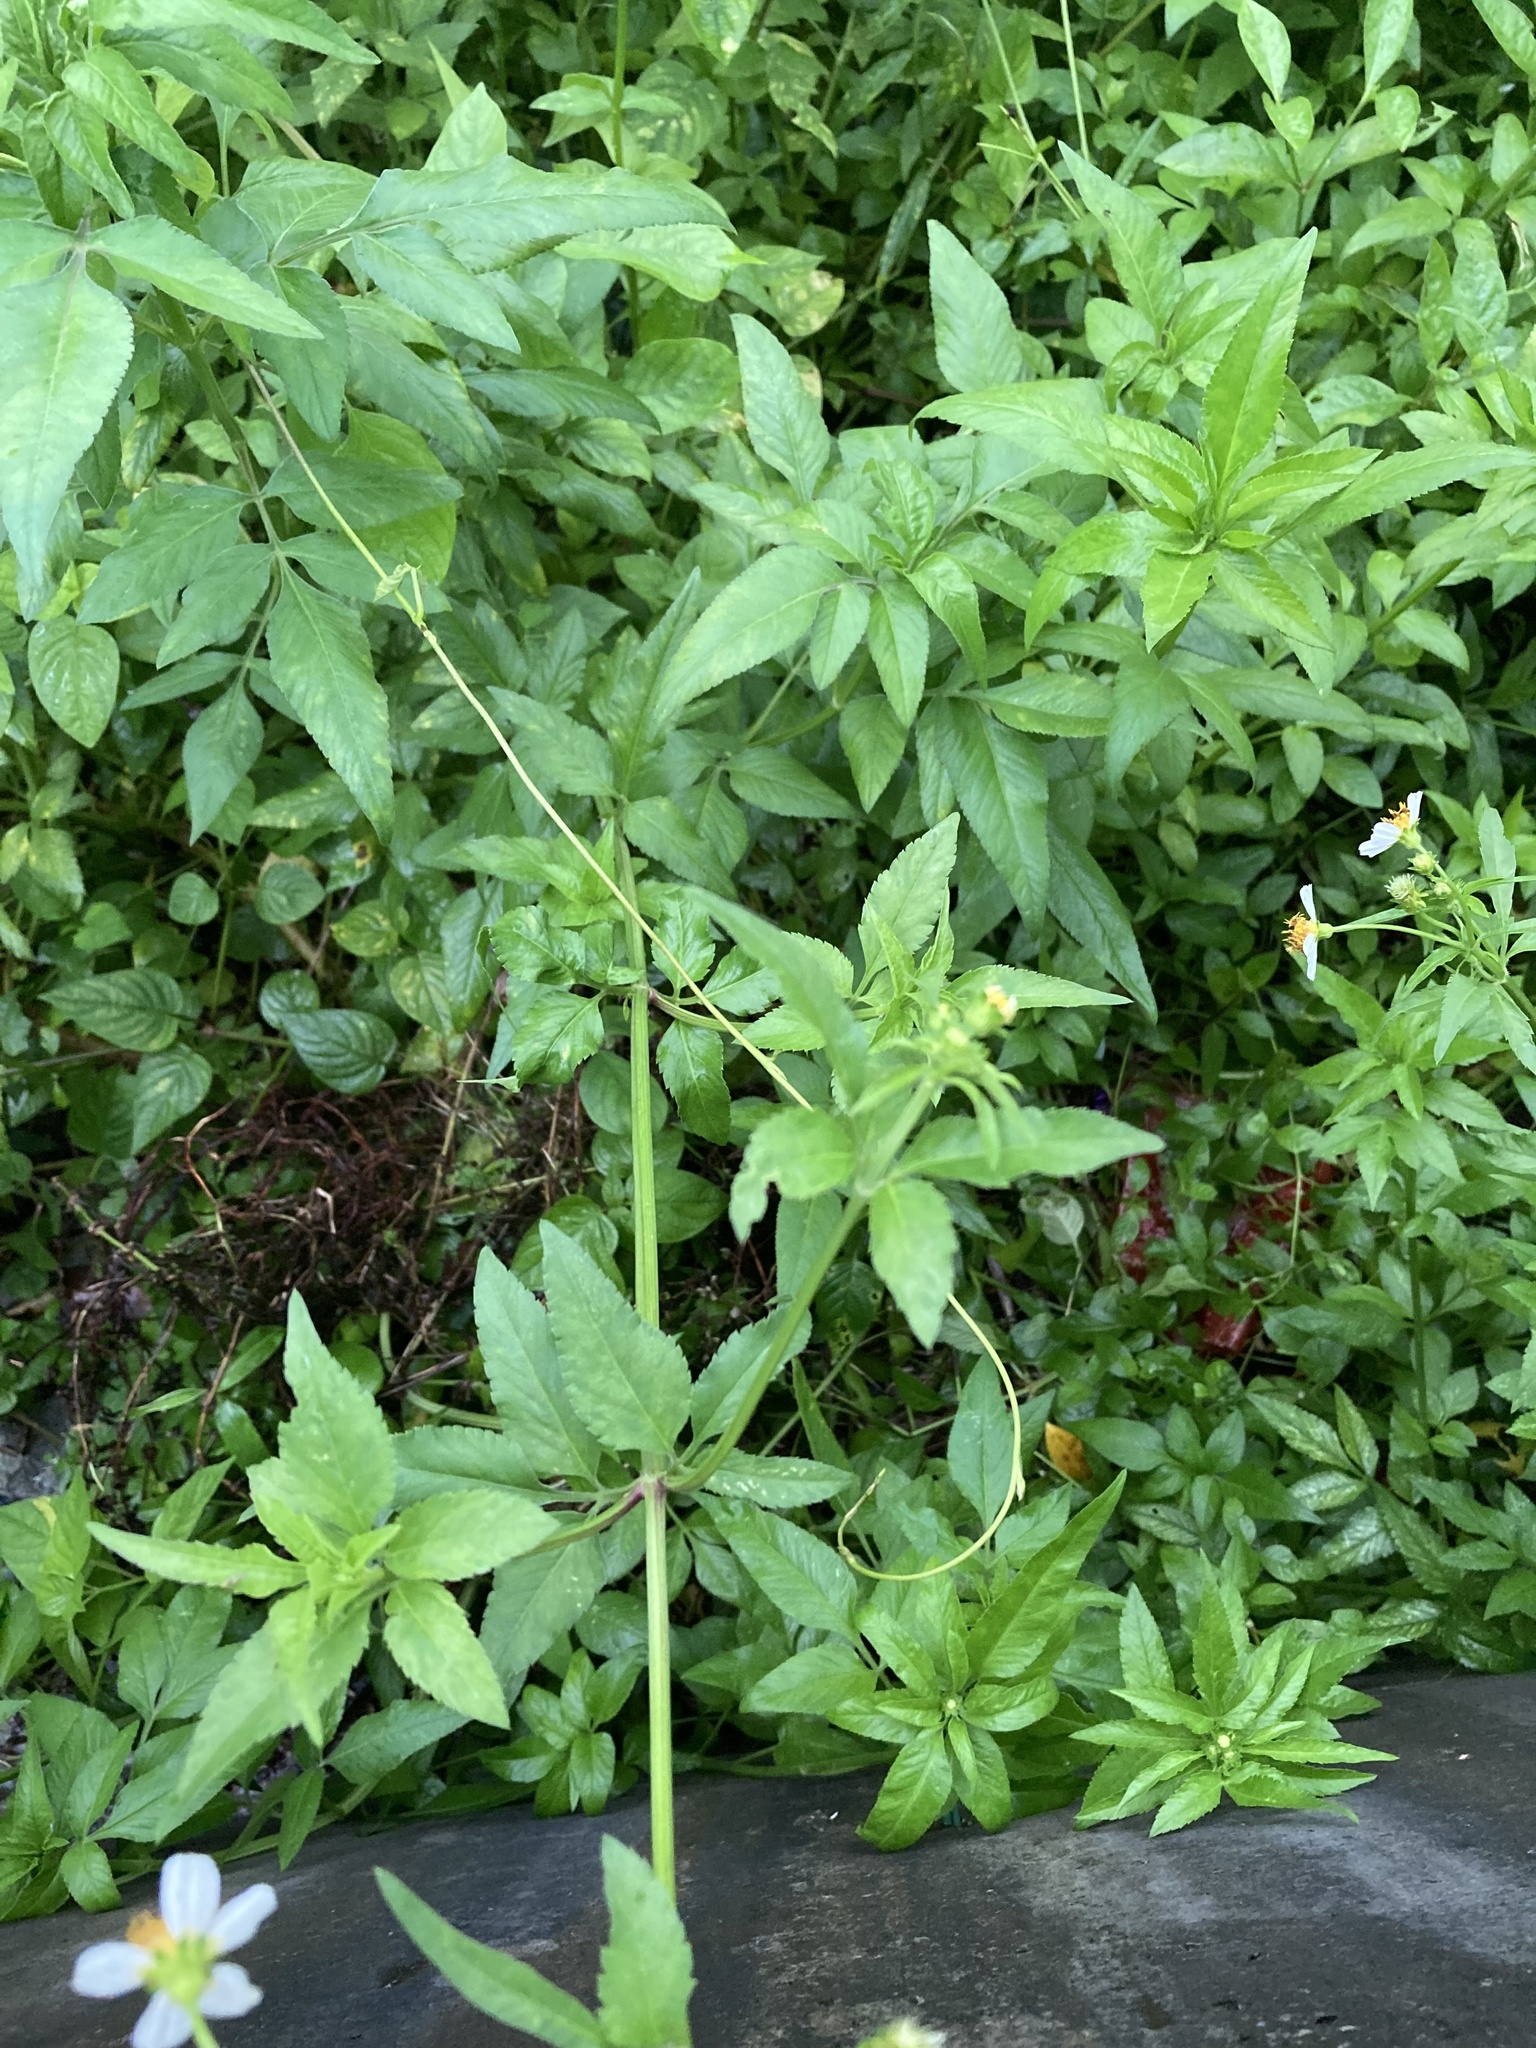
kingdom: Plantae
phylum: Tracheophyta
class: Magnoliopsida
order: Asterales
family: Asteraceae
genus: Bidens
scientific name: Bidens alba
